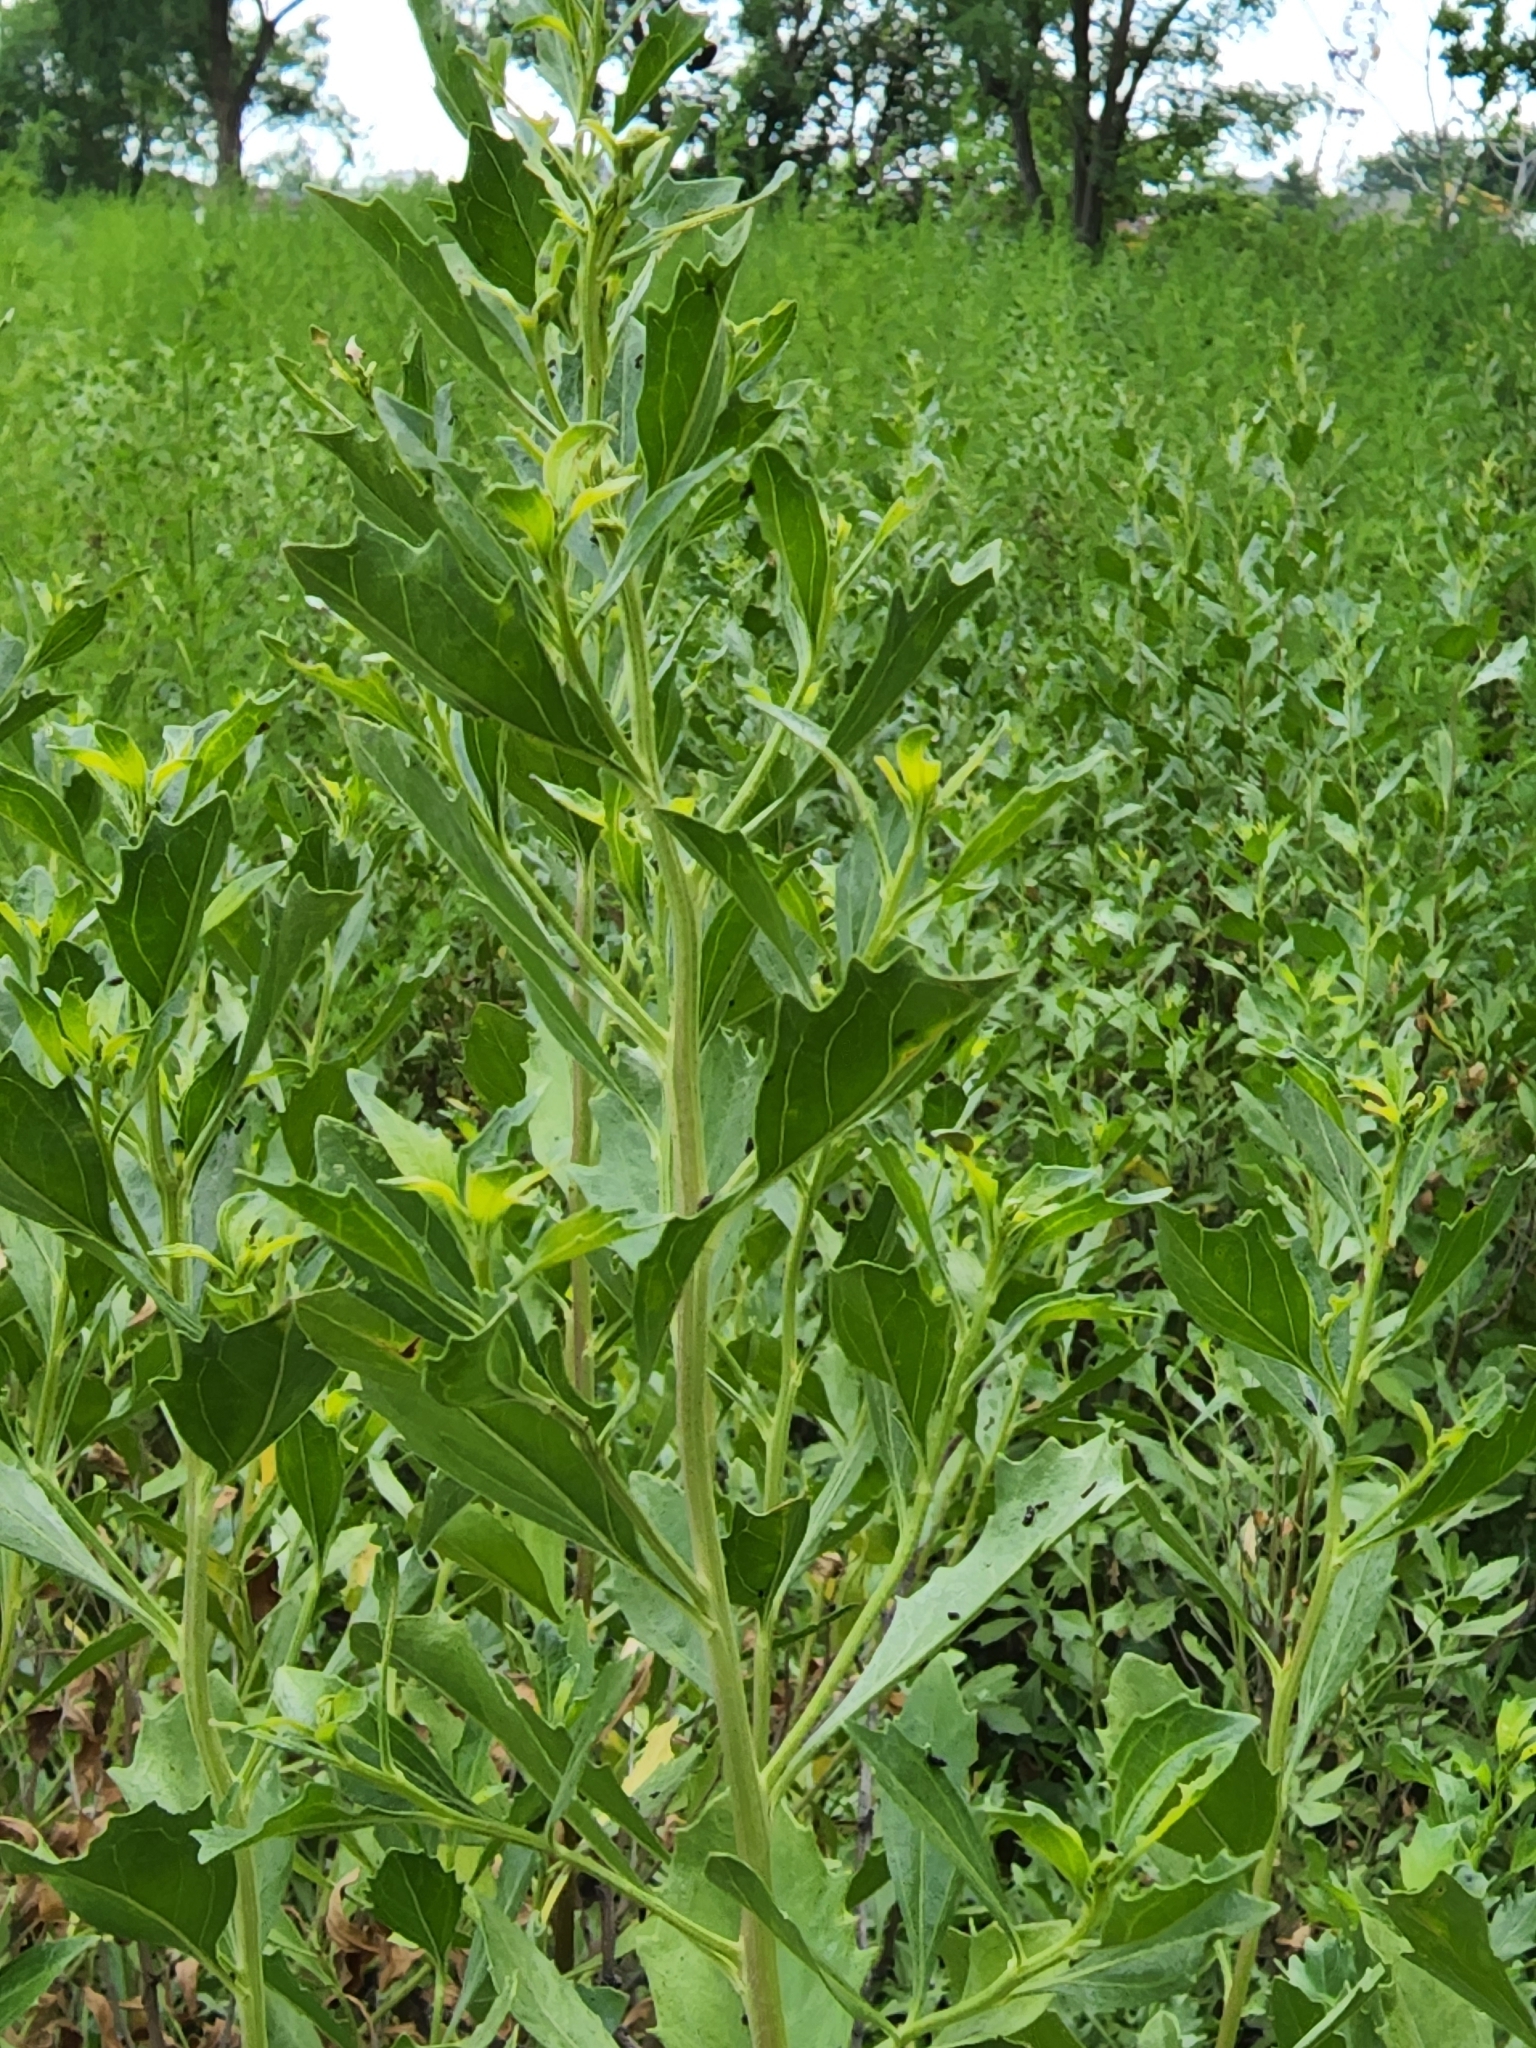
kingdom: Plantae
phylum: Tracheophyta
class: Magnoliopsida
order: Asterales
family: Asteraceae
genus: Baccharis
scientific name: Baccharis halimifolia
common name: Eastern baccharis
